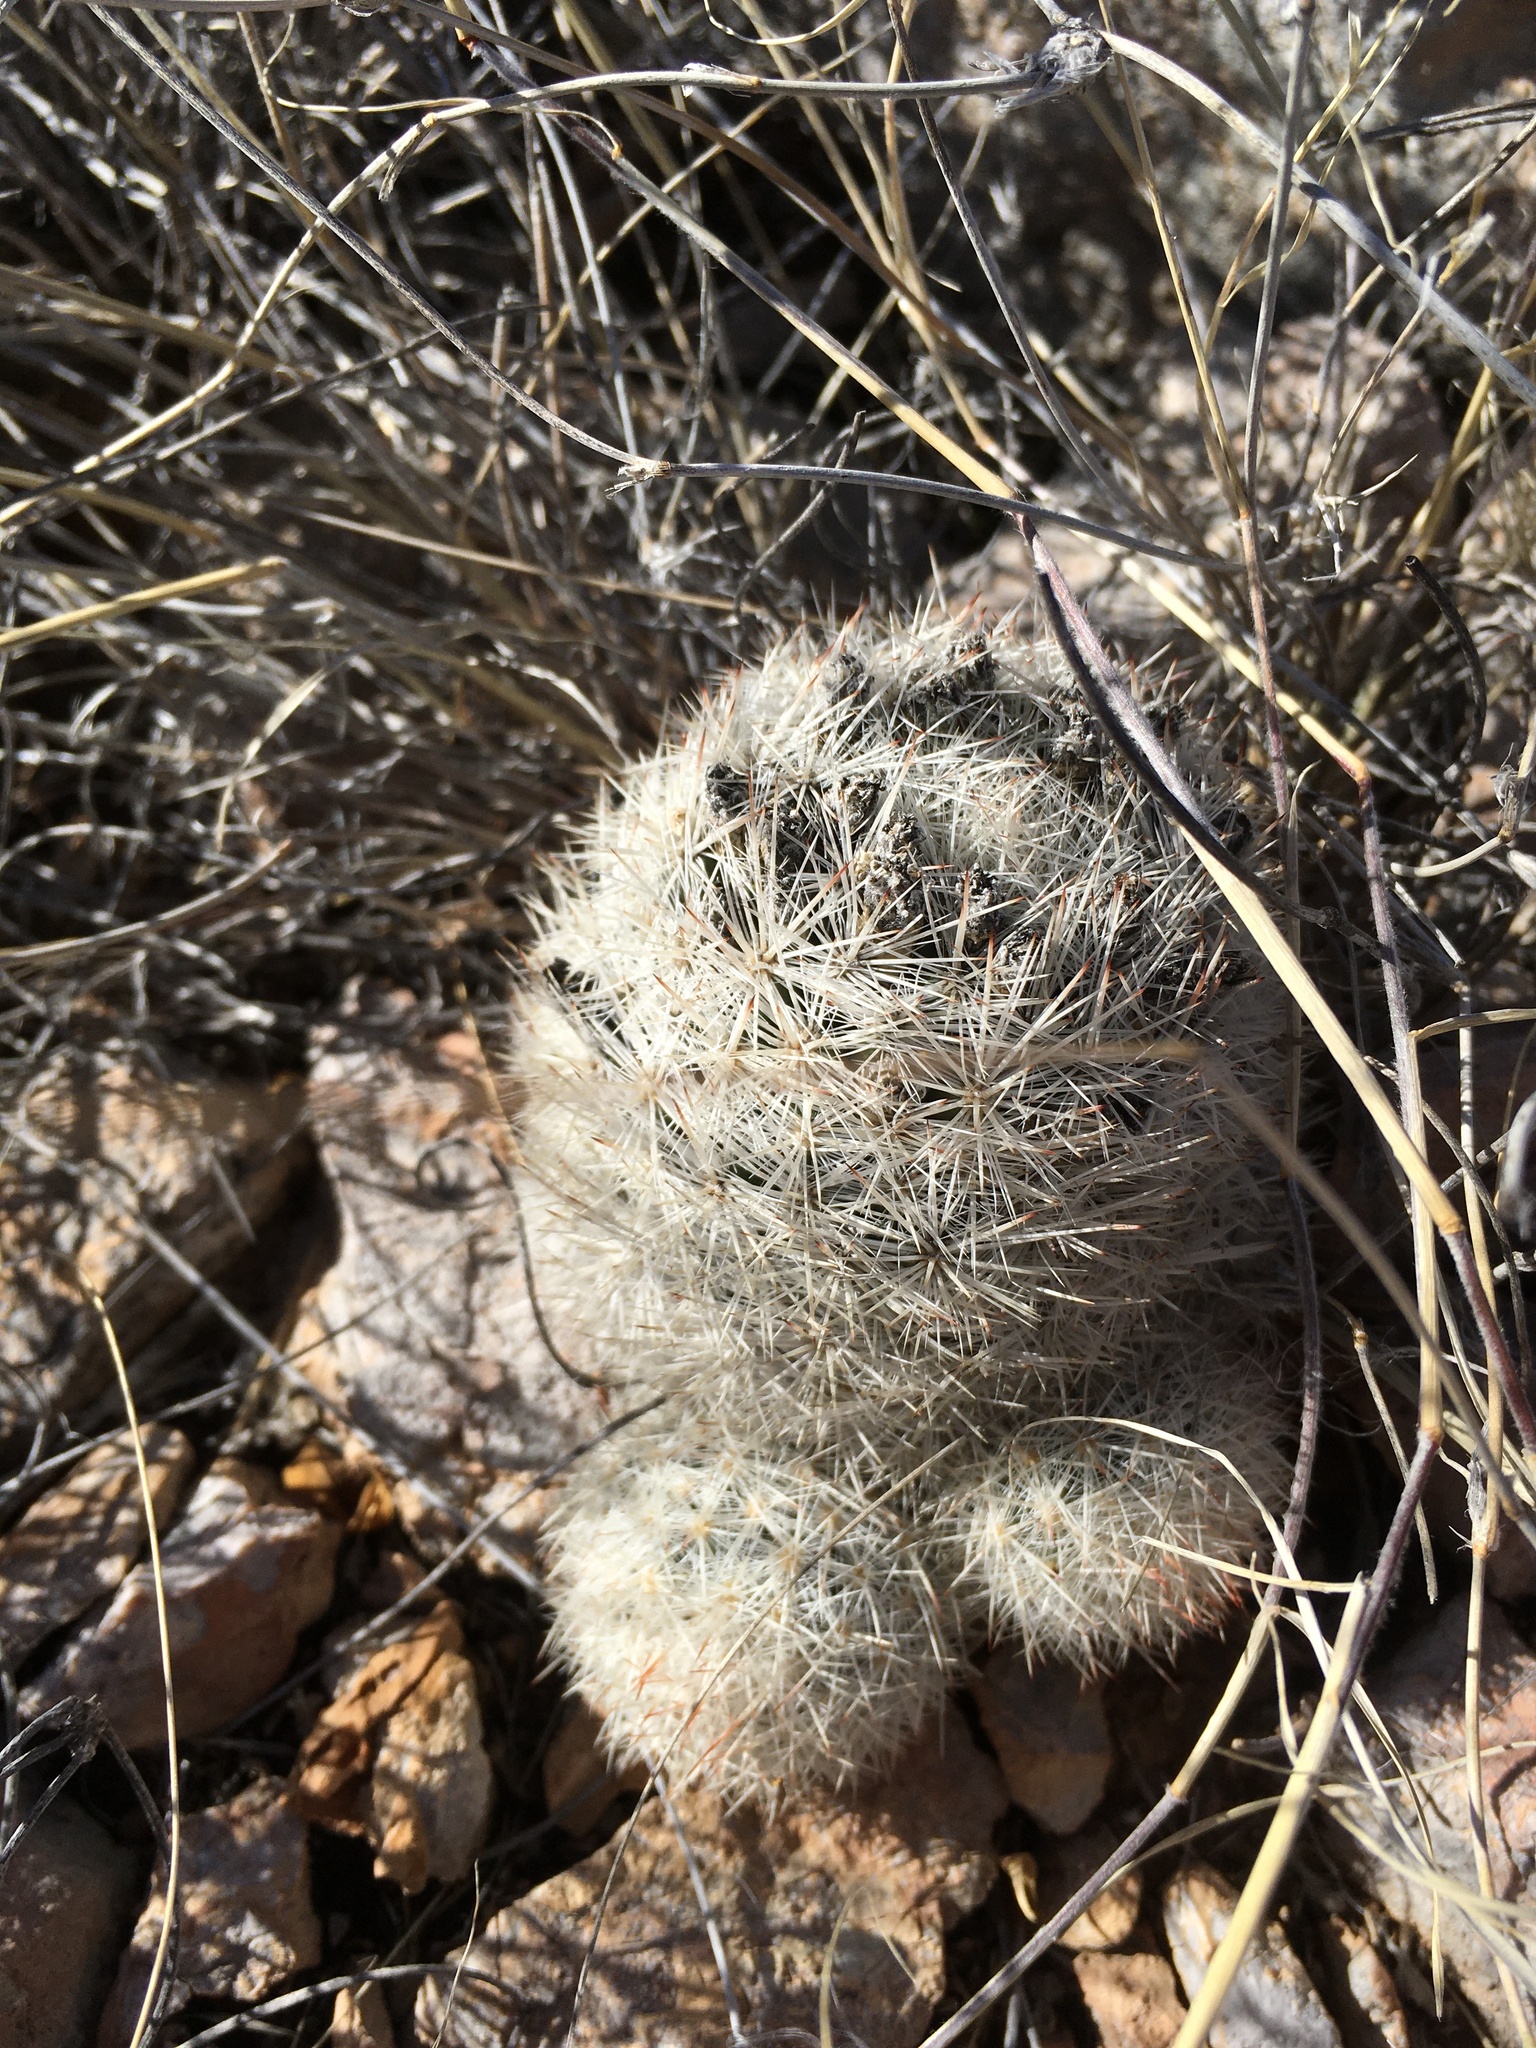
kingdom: Plantae
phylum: Tracheophyta
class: Magnoliopsida
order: Caryophyllales
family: Cactaceae
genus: Pelecyphora
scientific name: Pelecyphora sneedii
